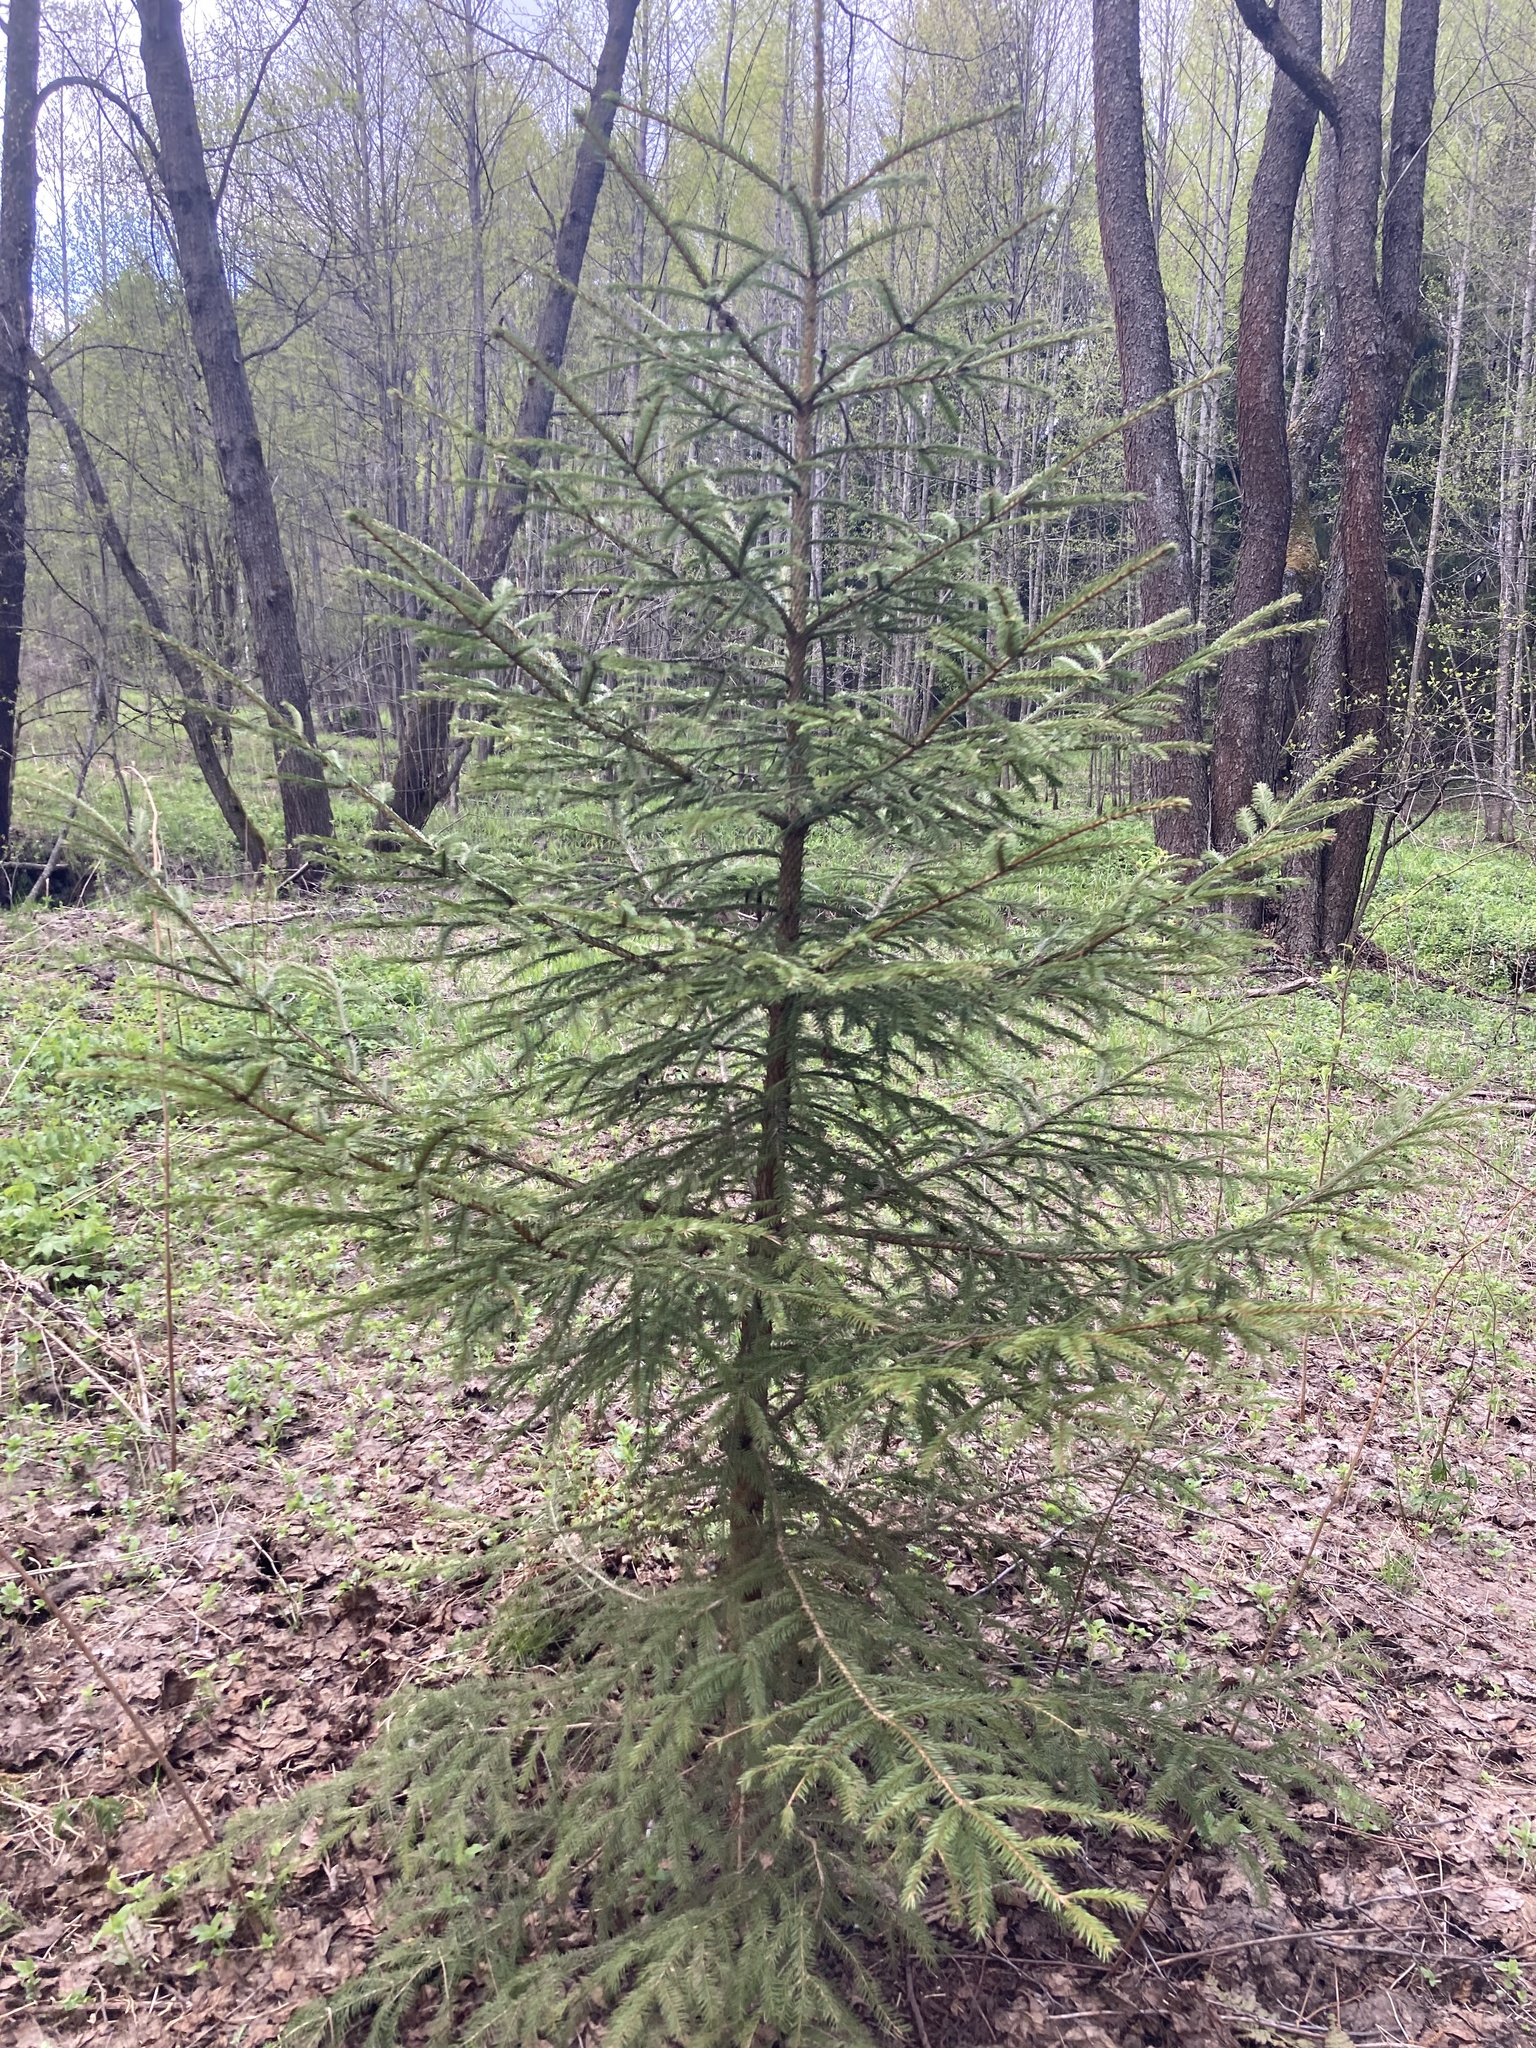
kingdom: Plantae
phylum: Tracheophyta
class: Pinopsida
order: Pinales
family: Pinaceae
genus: Picea
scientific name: Picea abies
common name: Norway spruce
